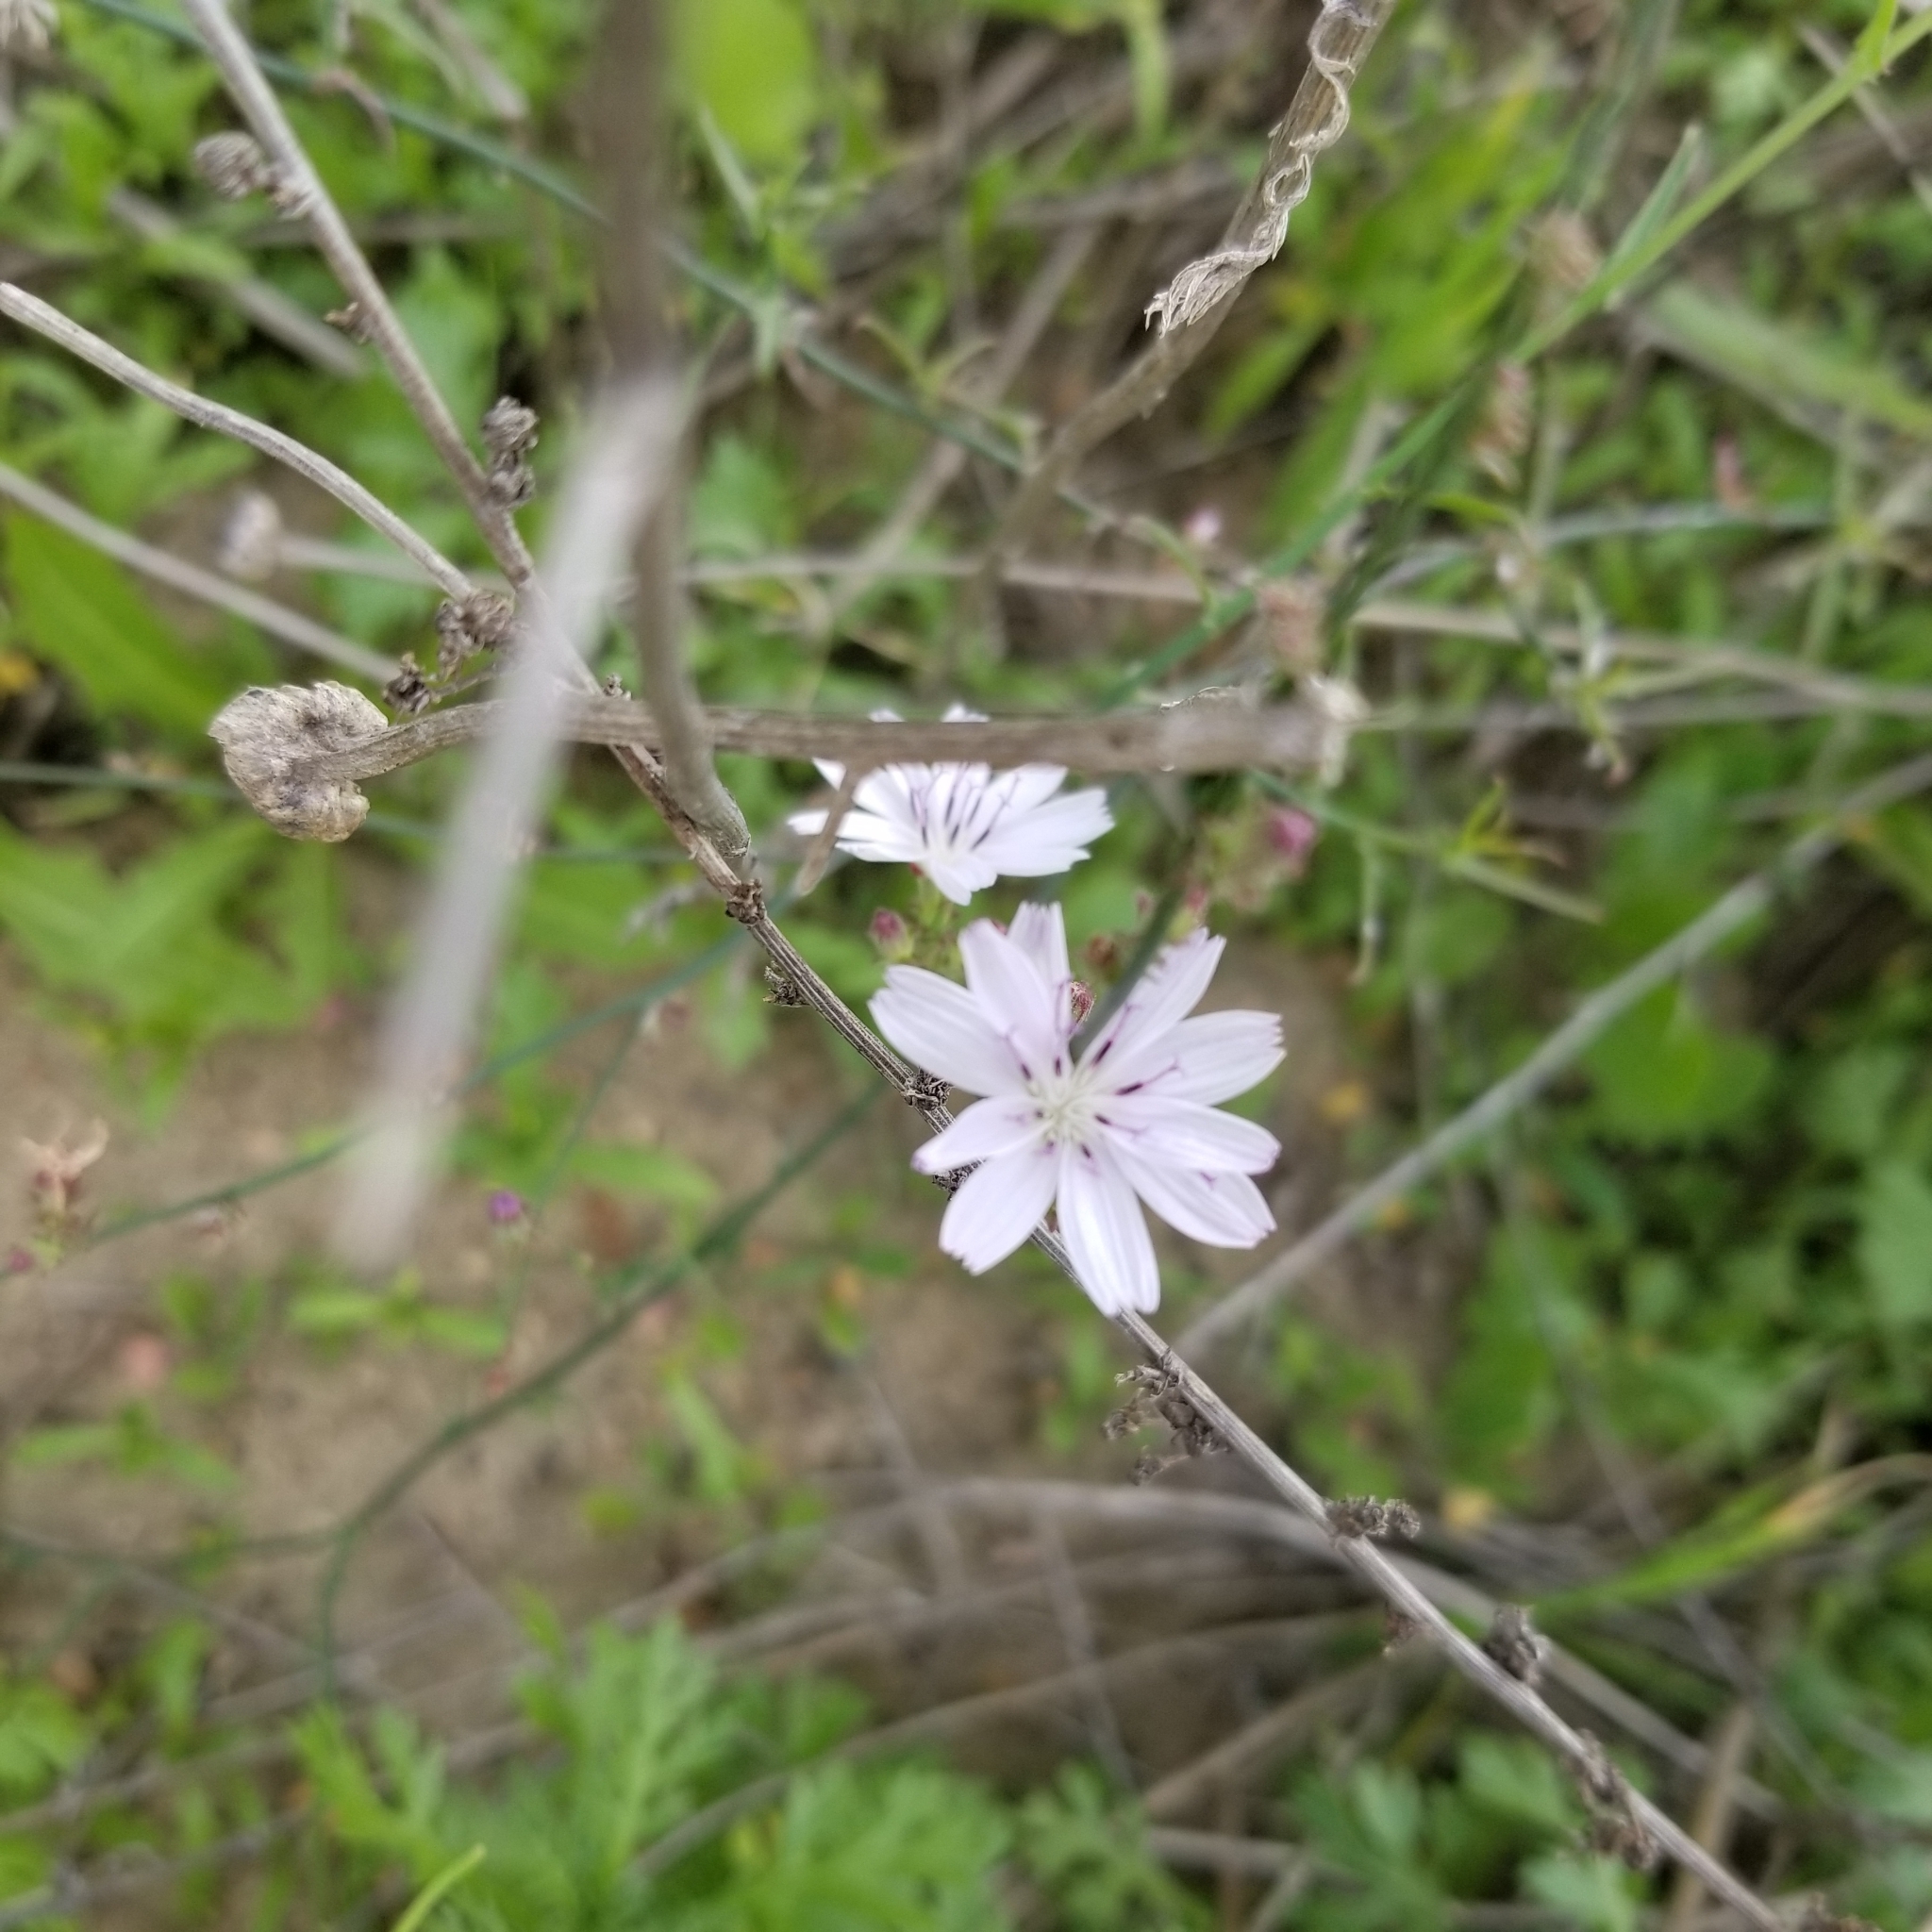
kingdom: Plantae
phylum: Tracheophyta
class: Magnoliopsida
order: Asterales
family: Asteraceae
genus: Stephanomeria
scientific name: Stephanomeria diegensis
